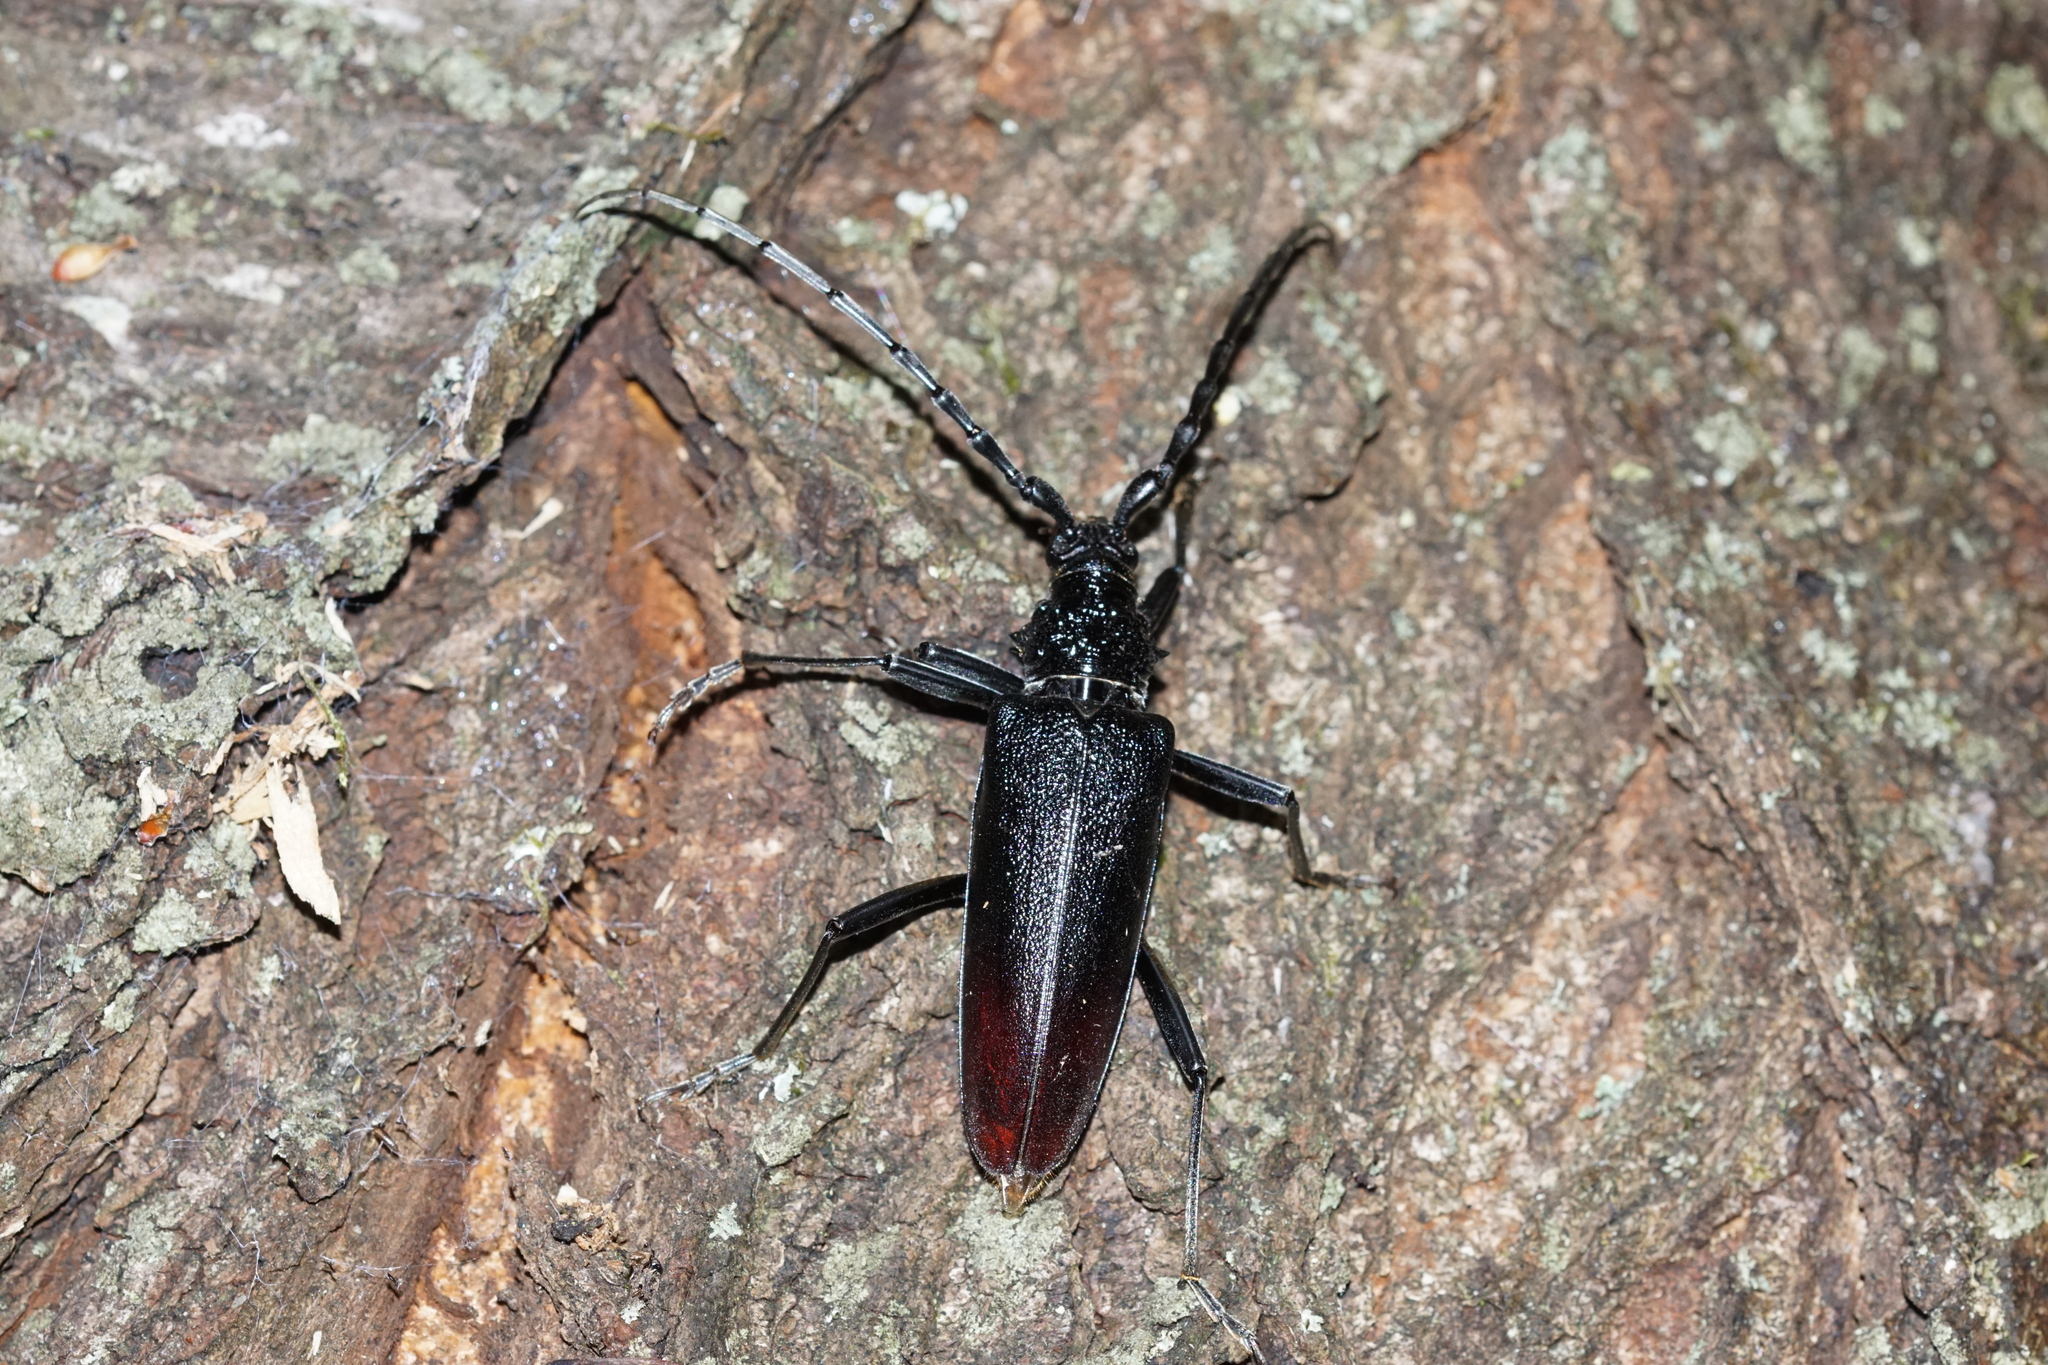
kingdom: Animalia
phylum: Arthropoda
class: Insecta
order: Coleoptera
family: Cerambycidae
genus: Cerambyx
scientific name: Cerambyx cerdo
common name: Cerambyx longicorn
